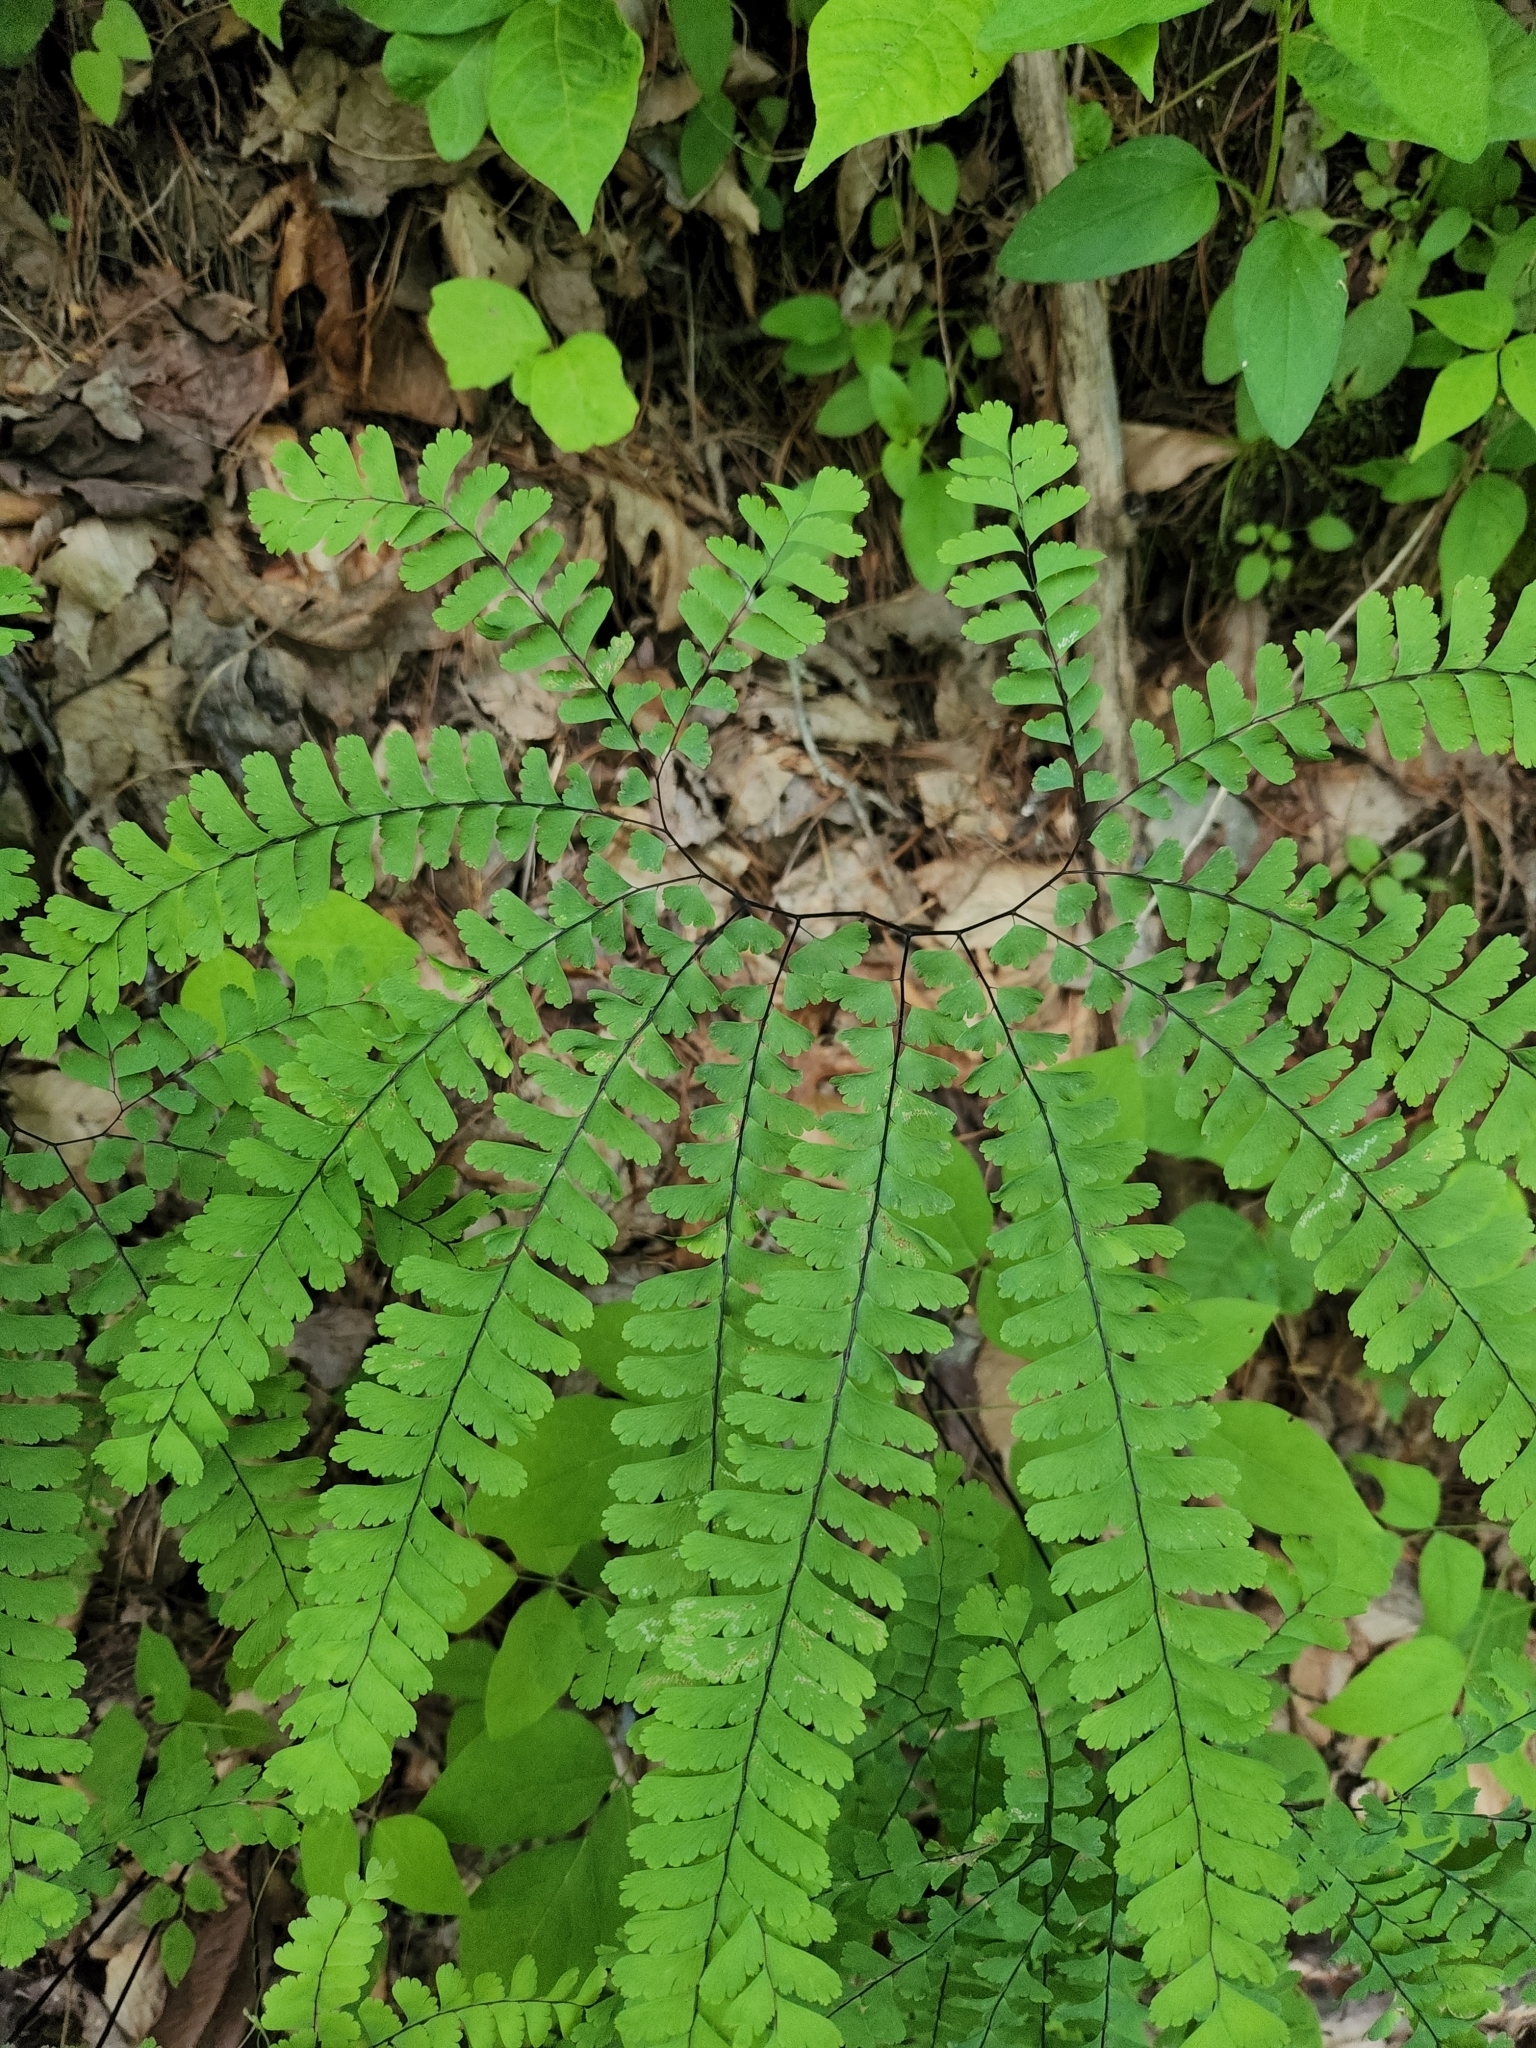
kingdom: Plantae
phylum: Tracheophyta
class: Polypodiopsida
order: Polypodiales
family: Pteridaceae
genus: Adiantum
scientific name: Adiantum pedatum
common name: Five-finger fern
